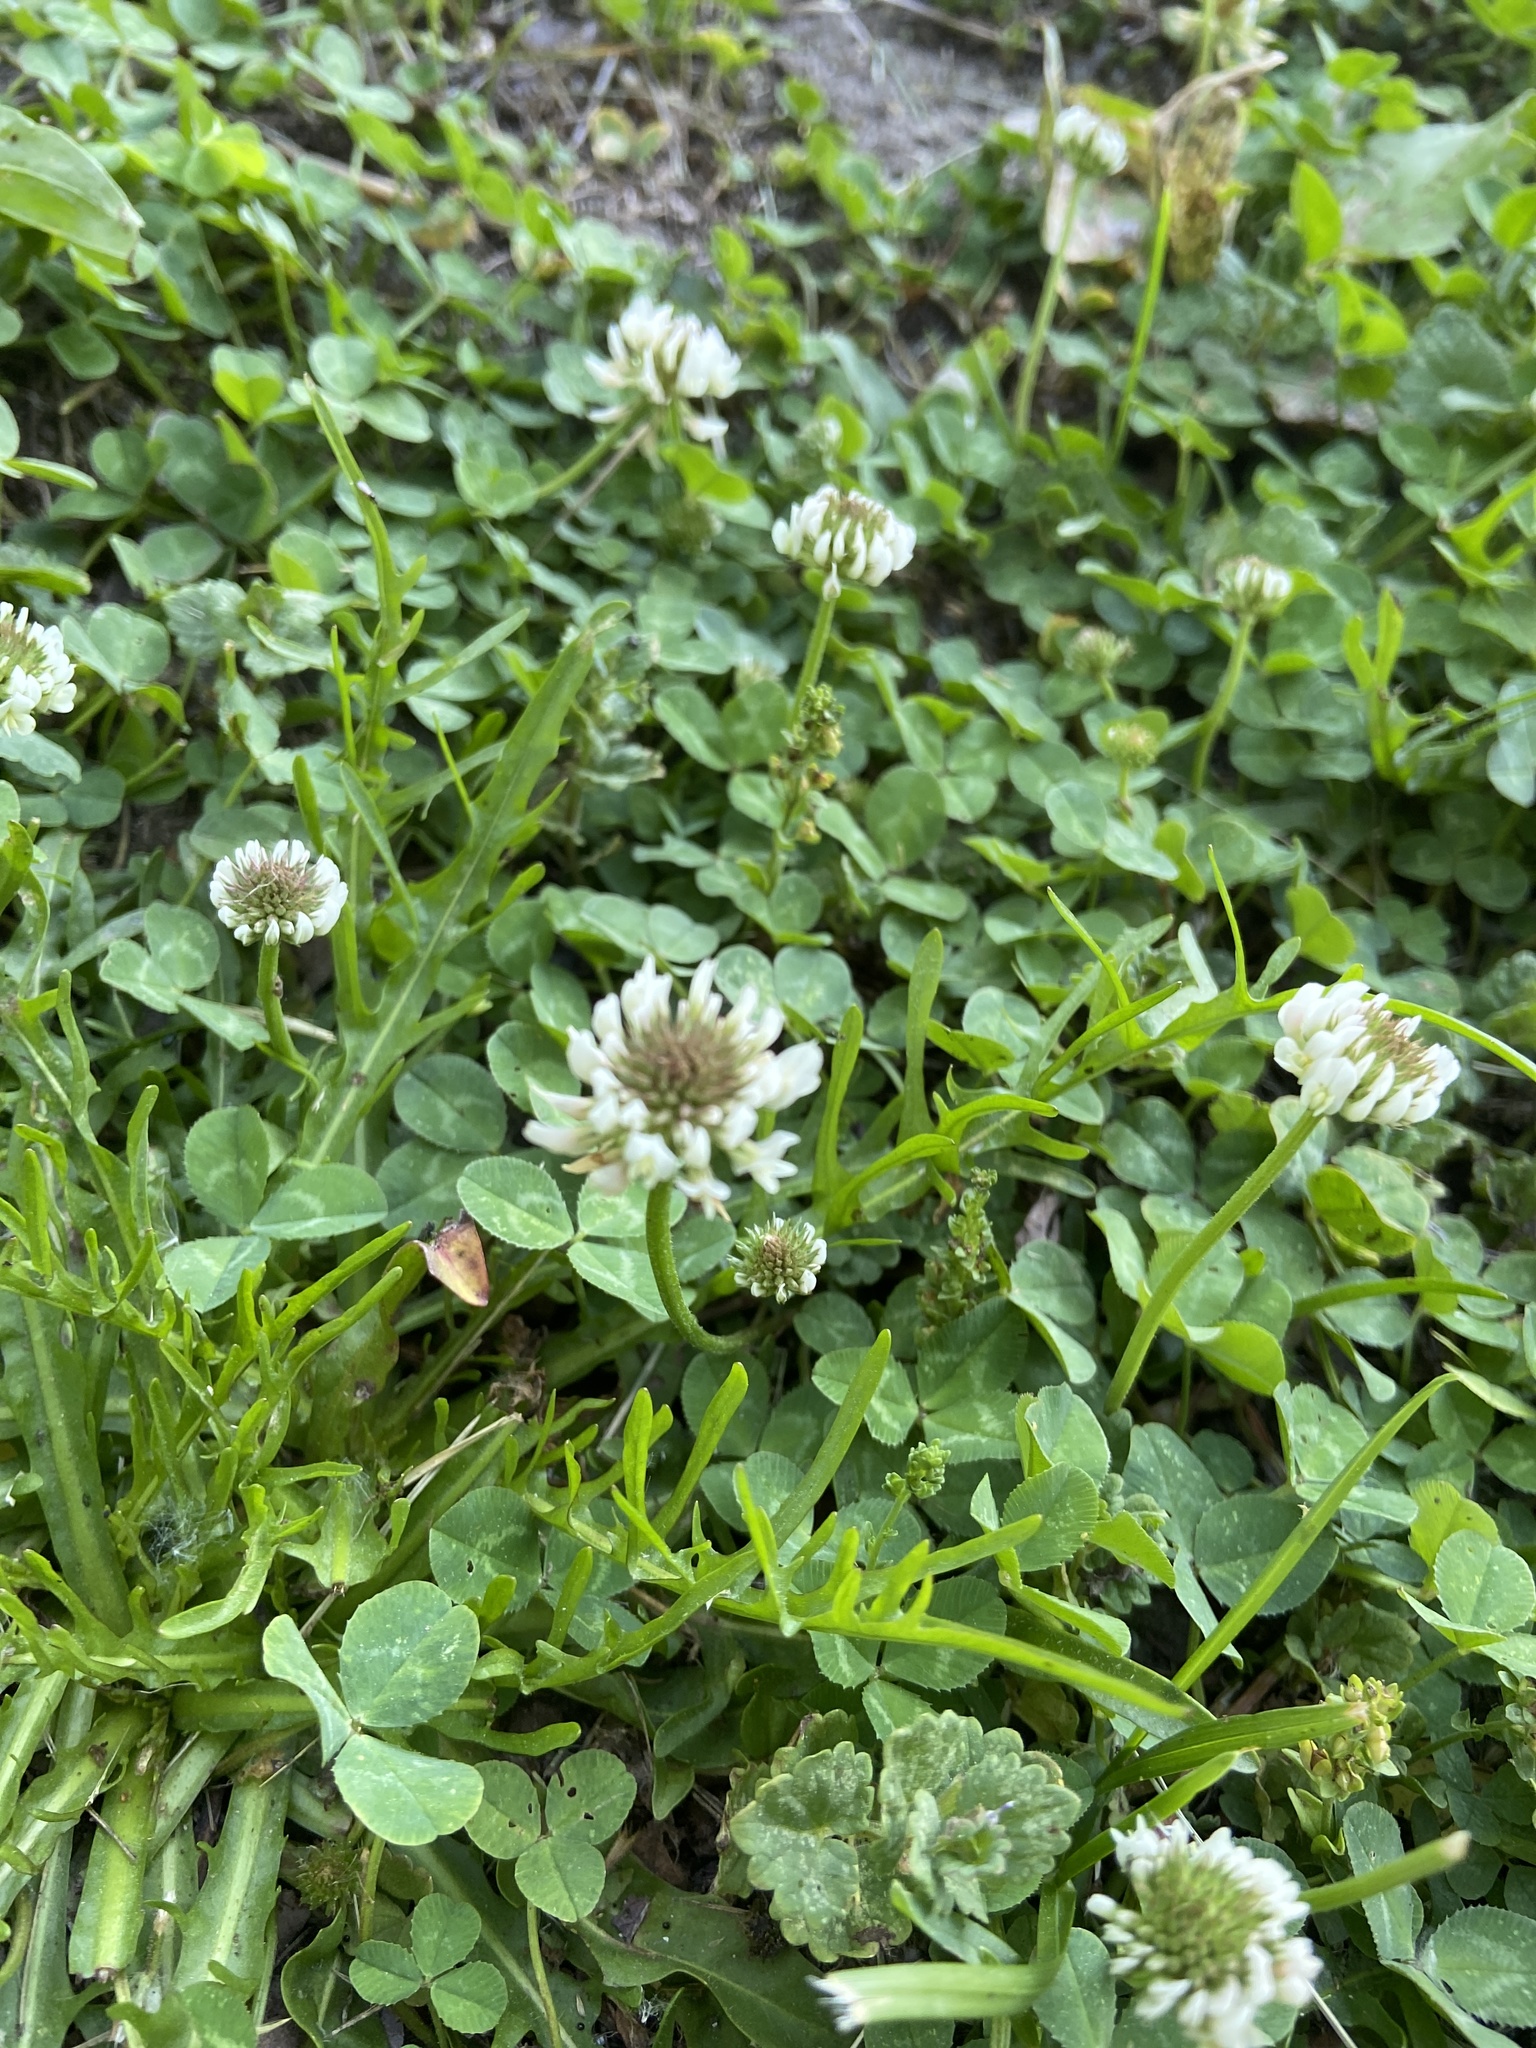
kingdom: Plantae
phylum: Tracheophyta
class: Magnoliopsida
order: Fabales
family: Fabaceae
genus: Trifolium
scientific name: Trifolium repens
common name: White clover
